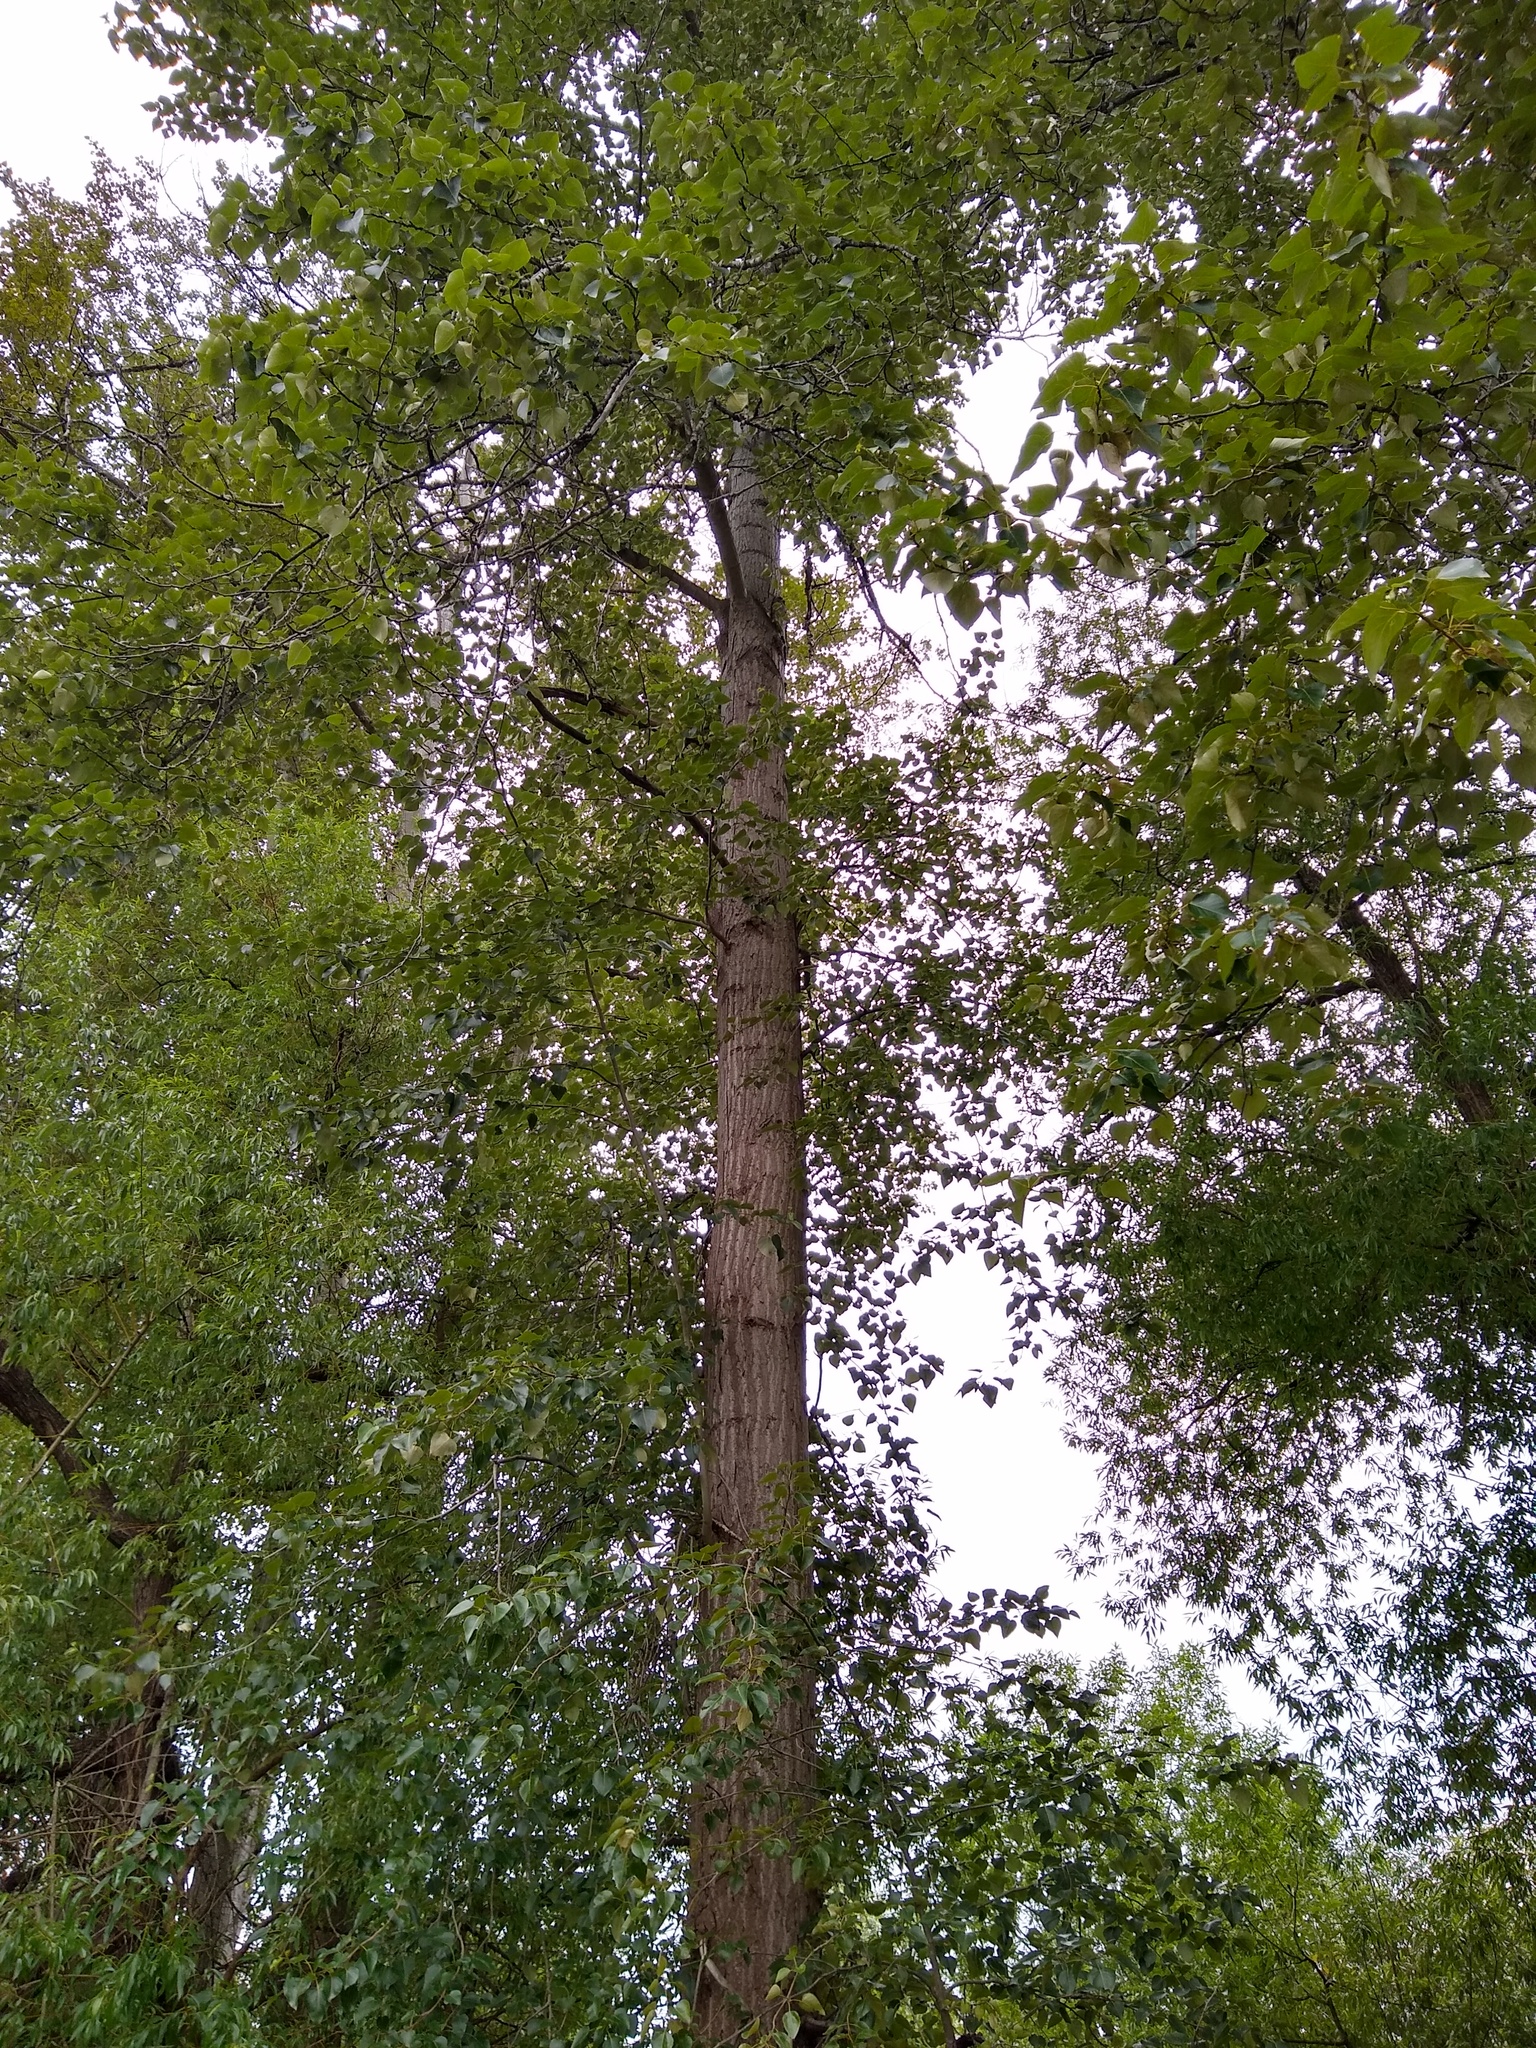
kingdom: Plantae
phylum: Tracheophyta
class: Magnoliopsida
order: Malpighiales
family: Salicaceae
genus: Populus
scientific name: Populus trichocarpa
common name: Black cottonwood
